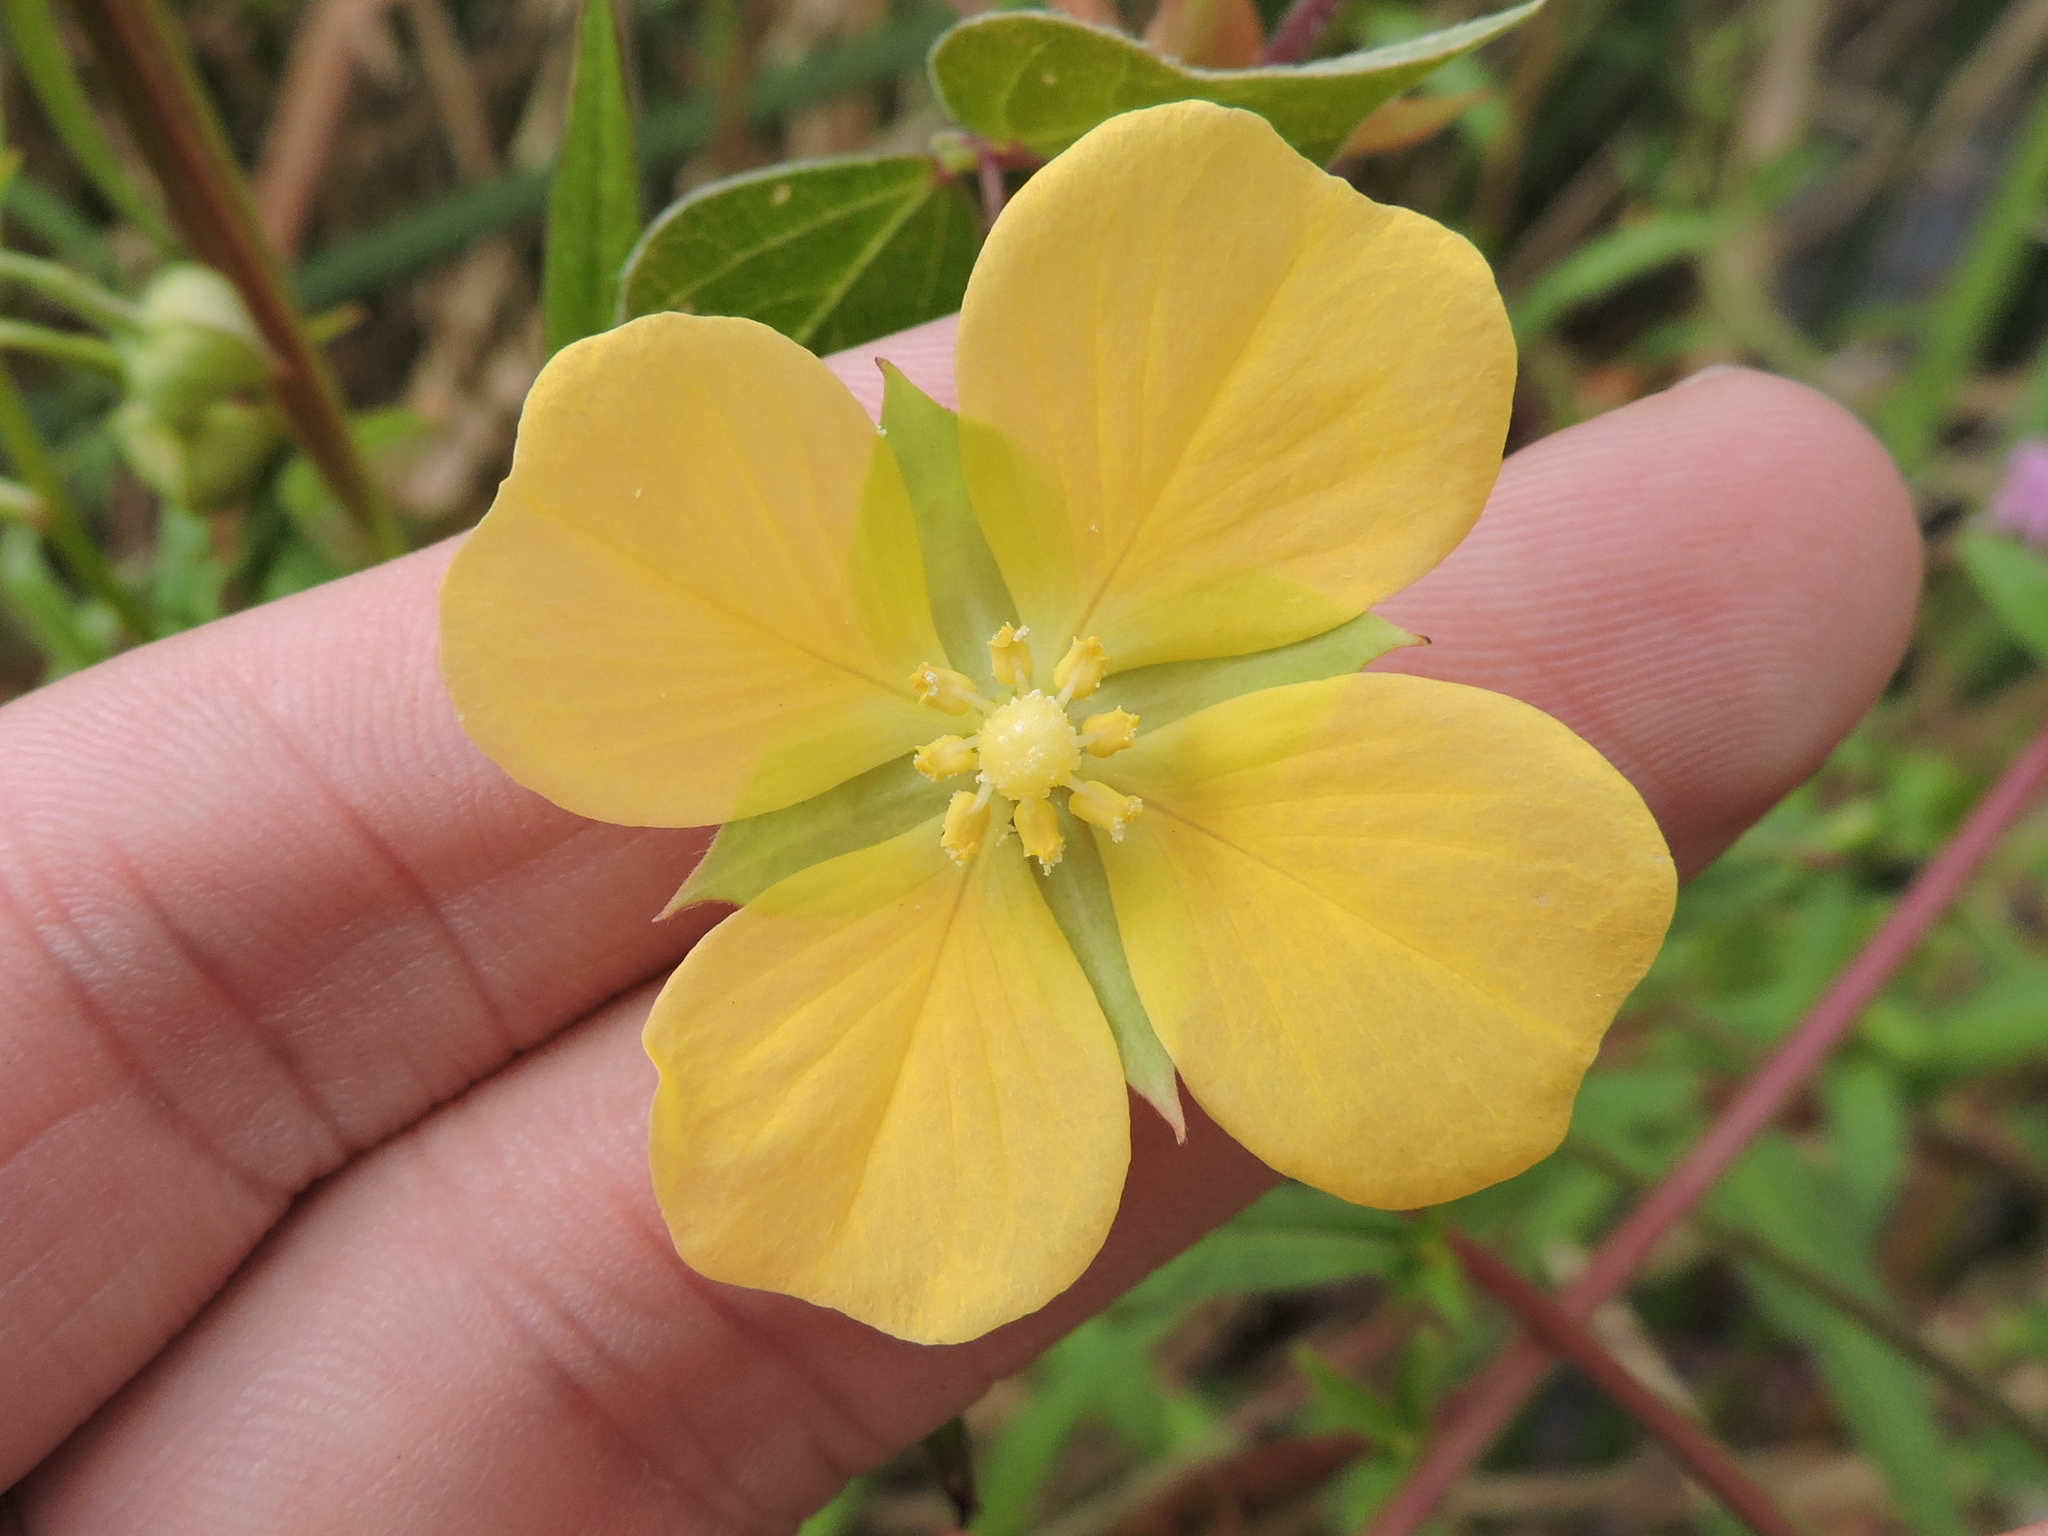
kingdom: Plantae
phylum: Tracheophyta
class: Magnoliopsida
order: Myrtales
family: Onagraceae
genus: Ludwigia
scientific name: Ludwigia octovalvis
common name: Water-primrose
